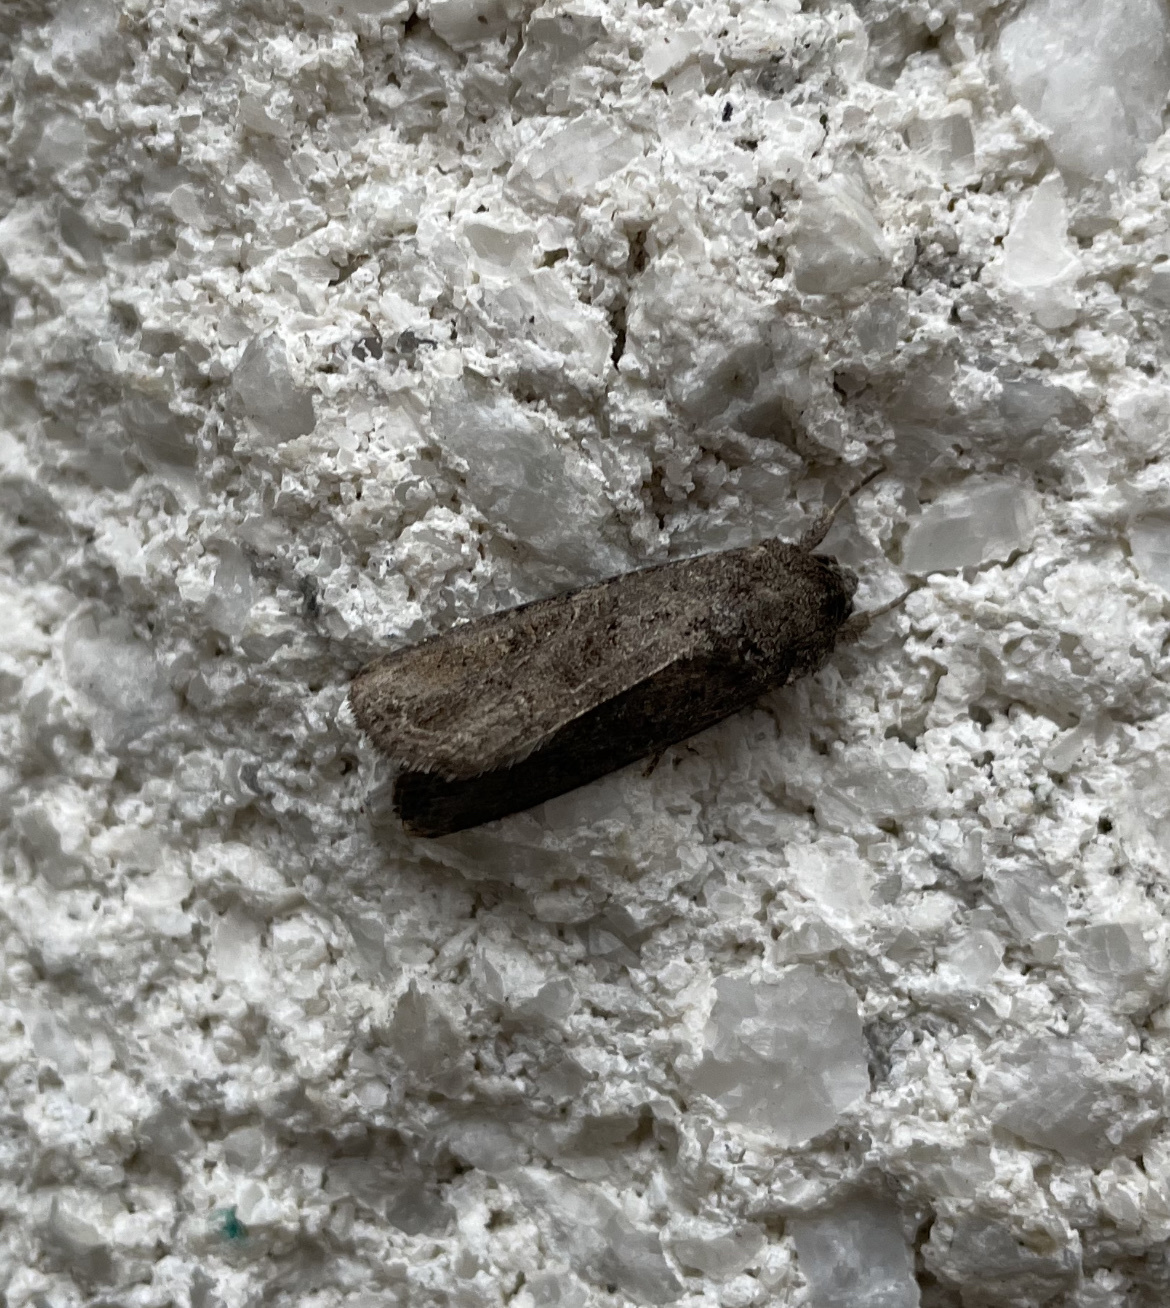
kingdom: Animalia
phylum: Arthropoda
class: Insecta
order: Lepidoptera
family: Noctuidae
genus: Spodoptera
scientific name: Spodoptera frugiperda
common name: Fall armyworm
